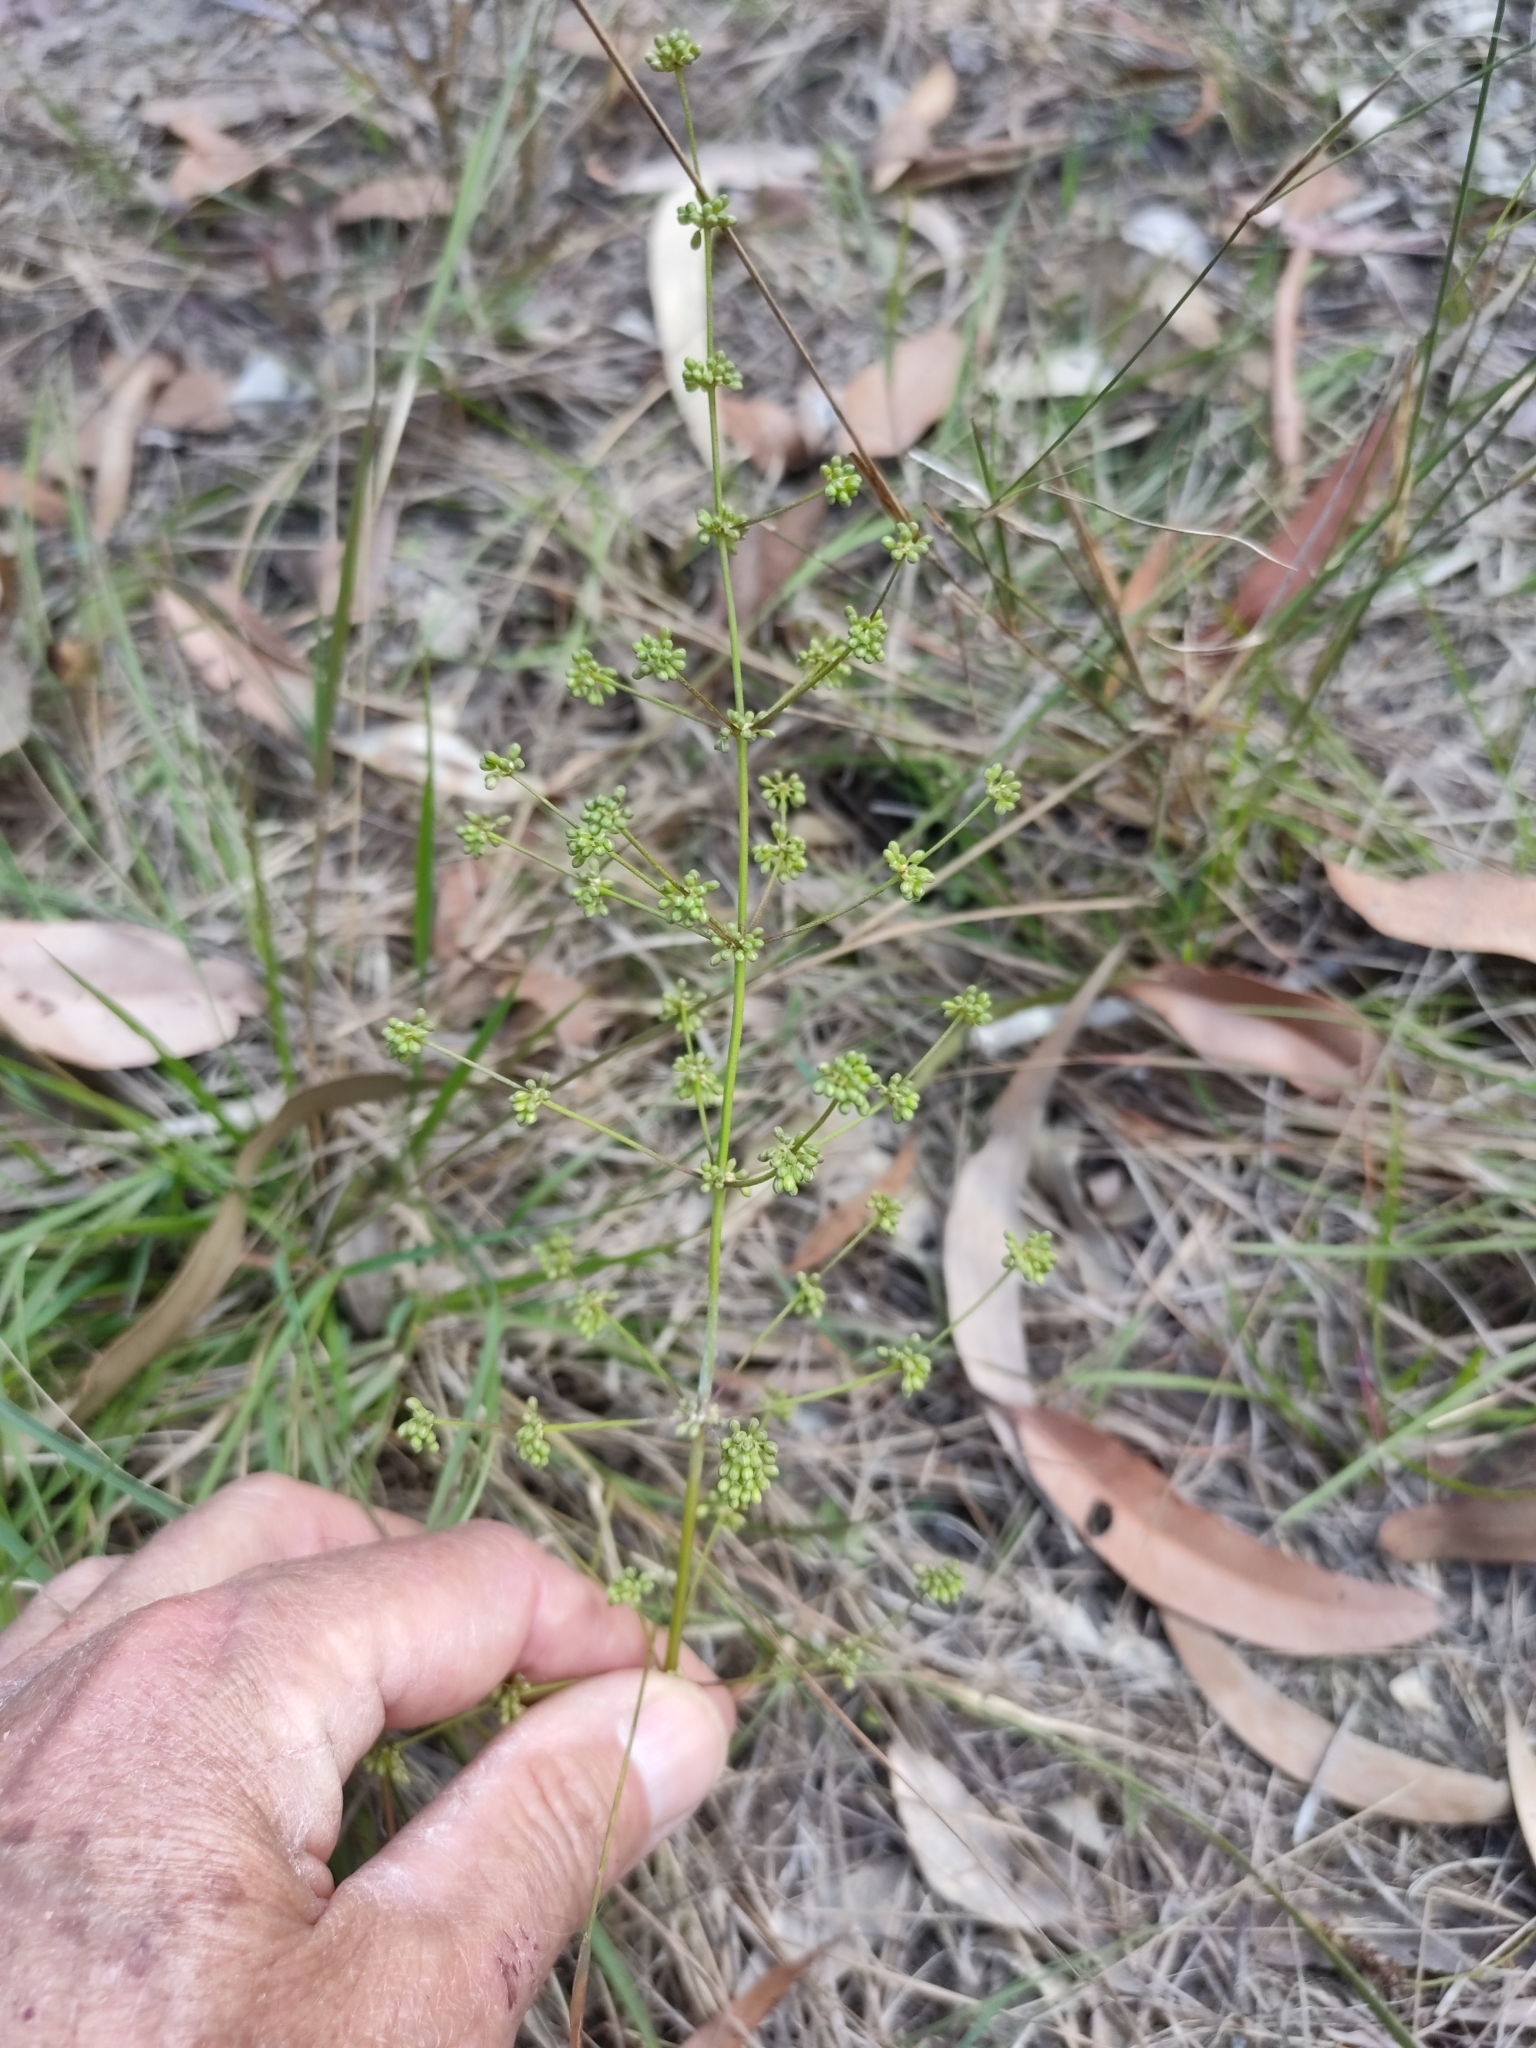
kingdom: Plantae
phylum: Tracheophyta
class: Liliopsida
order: Asparagales
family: Asparagaceae
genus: Lomandra
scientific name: Lomandra multiflora
